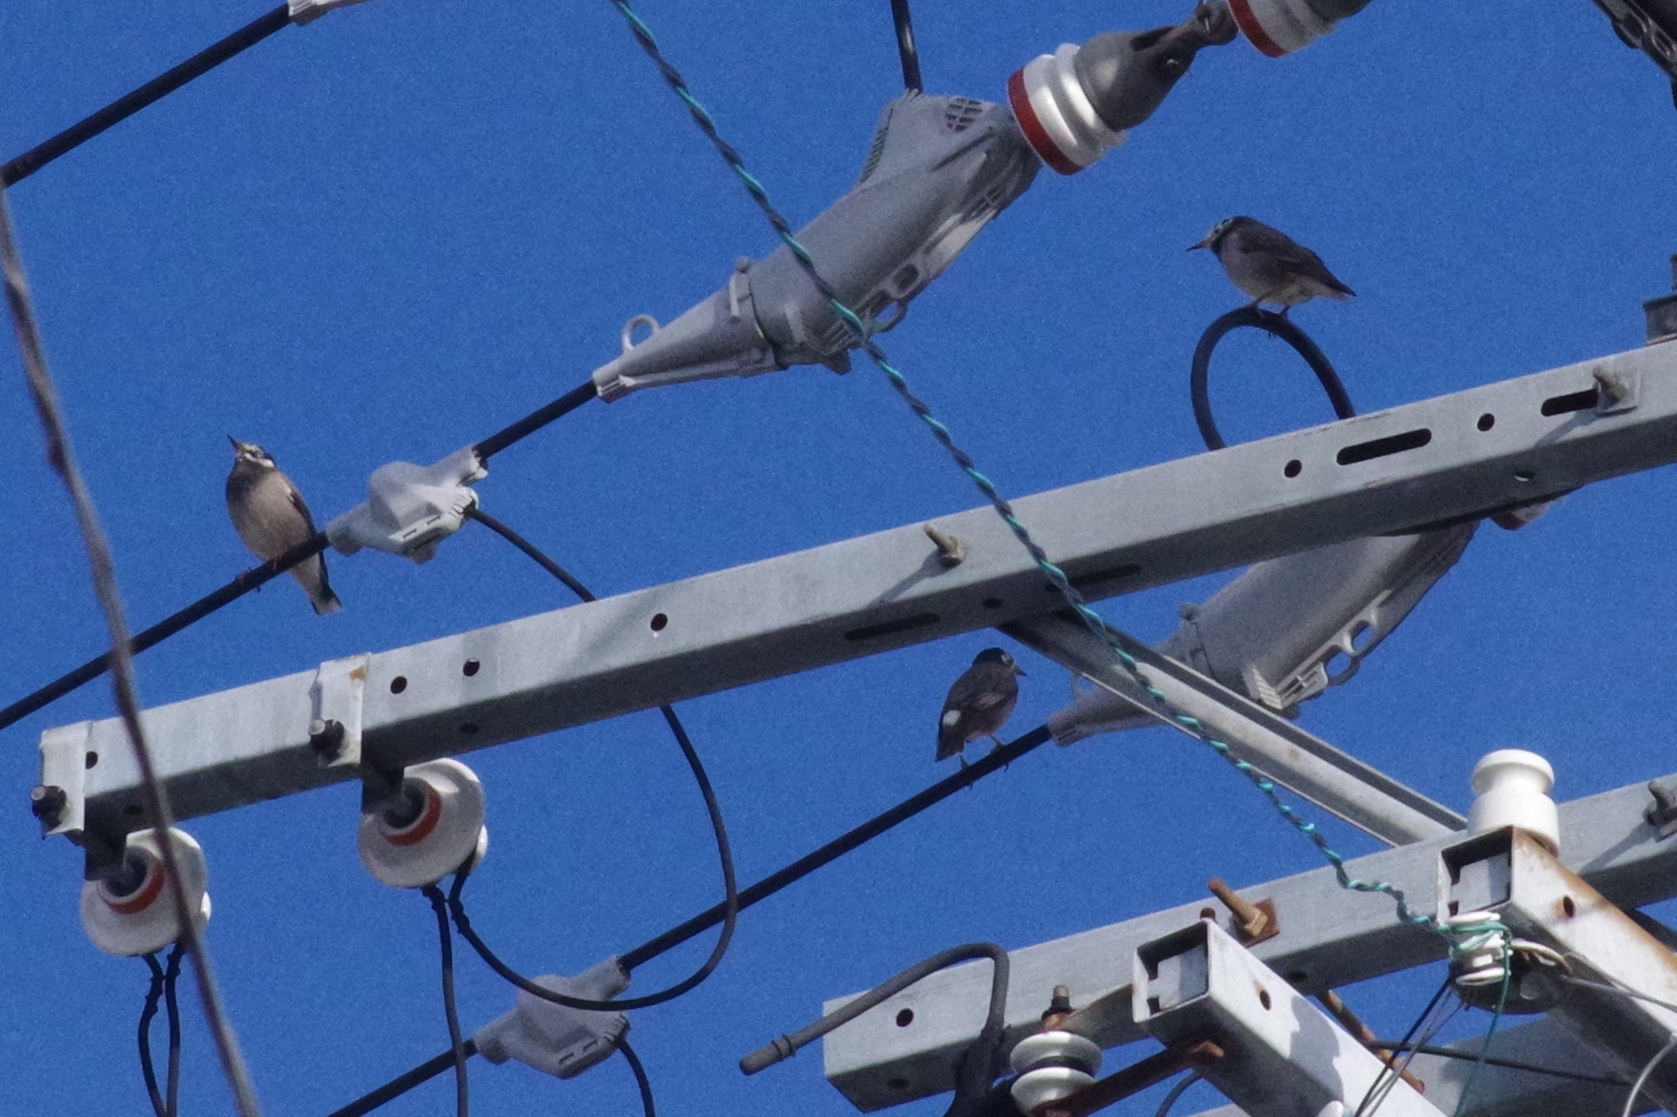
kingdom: Animalia
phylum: Chordata
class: Aves
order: Passeriformes
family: Sturnidae
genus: Spodiopsar
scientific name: Spodiopsar cineraceus
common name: White-cheeked starling
